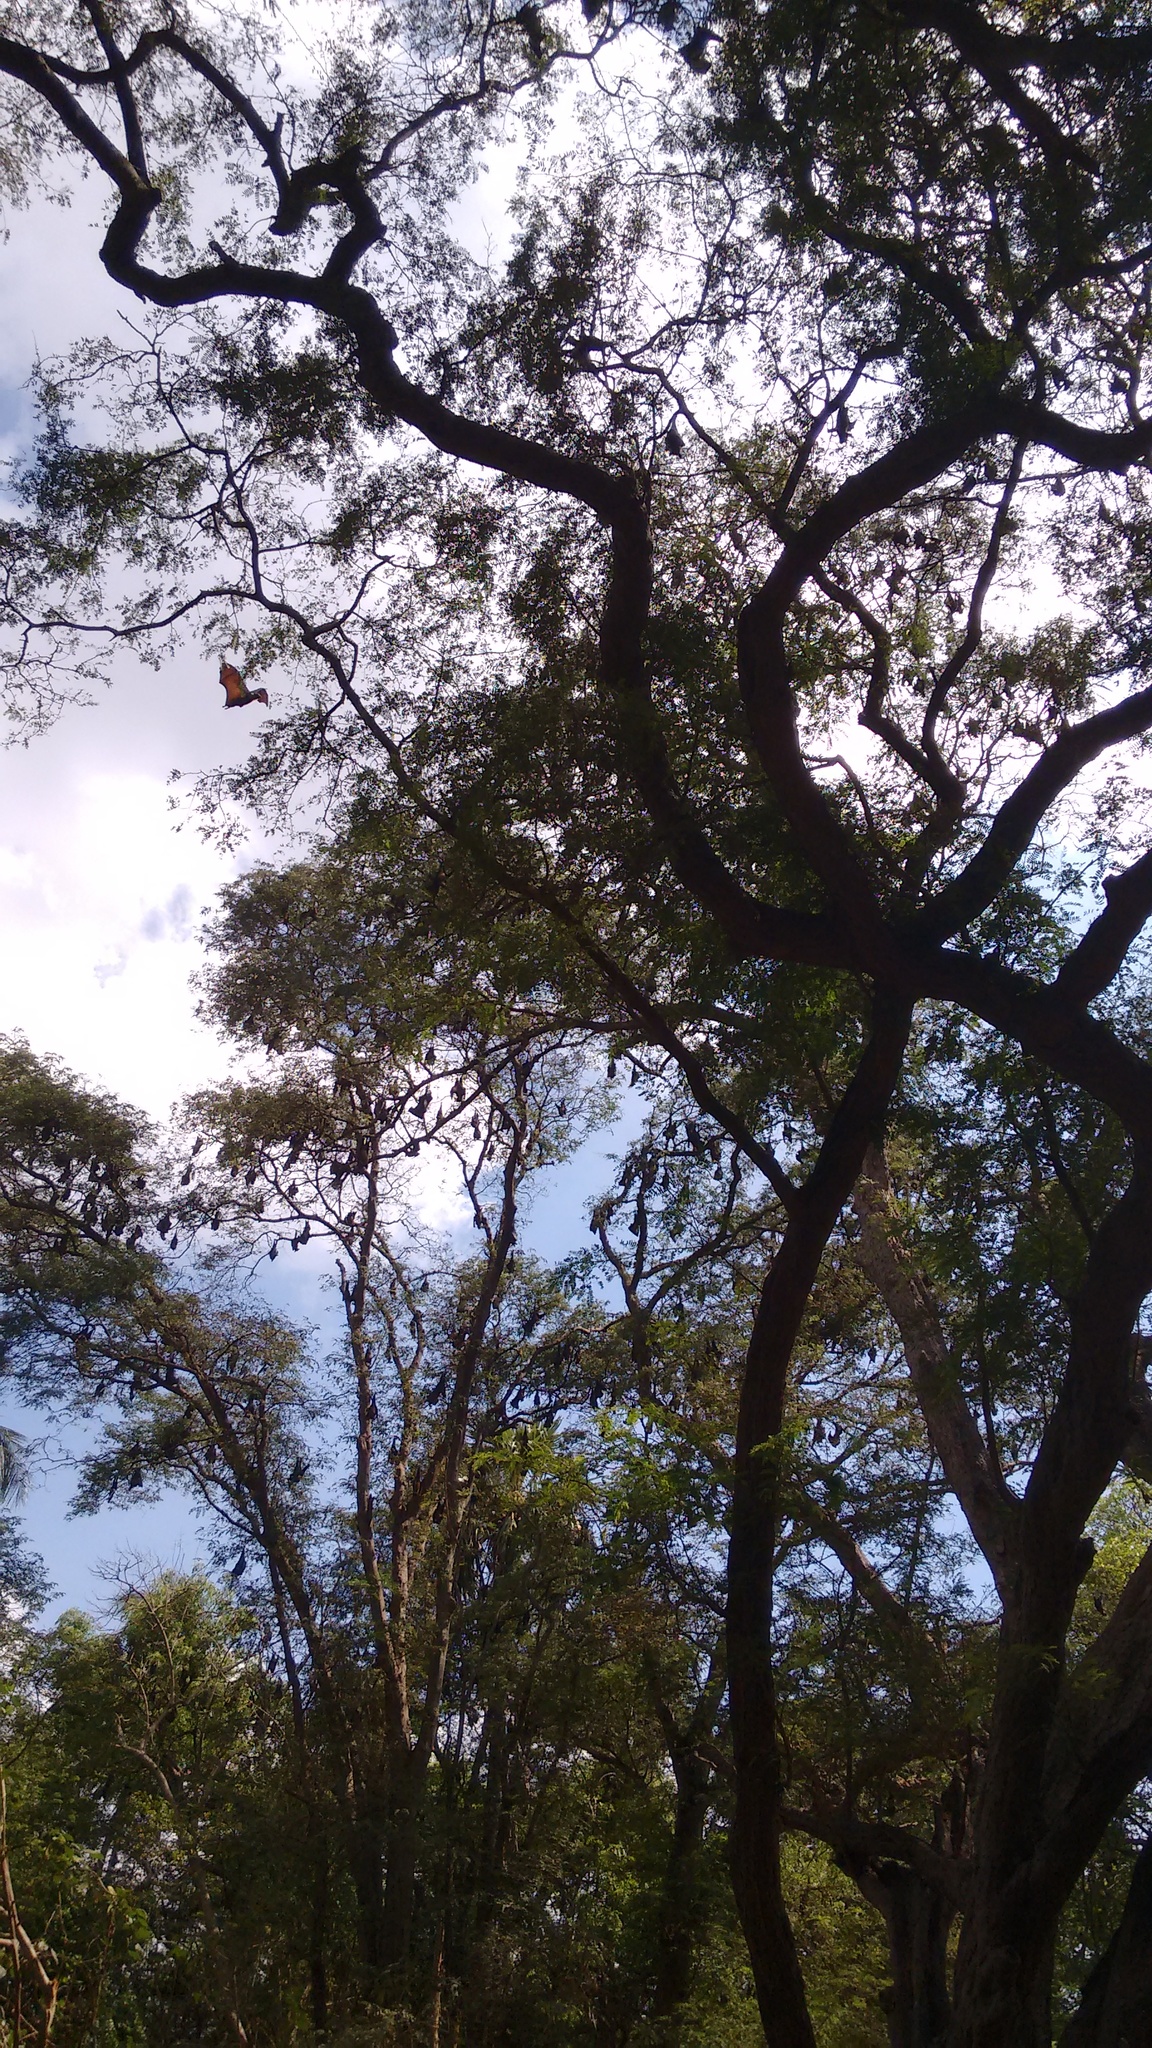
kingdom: Animalia
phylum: Chordata
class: Mammalia
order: Chiroptera
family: Pteropodidae
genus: Pteropus
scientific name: Pteropus vampyrus
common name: Large flying fox
